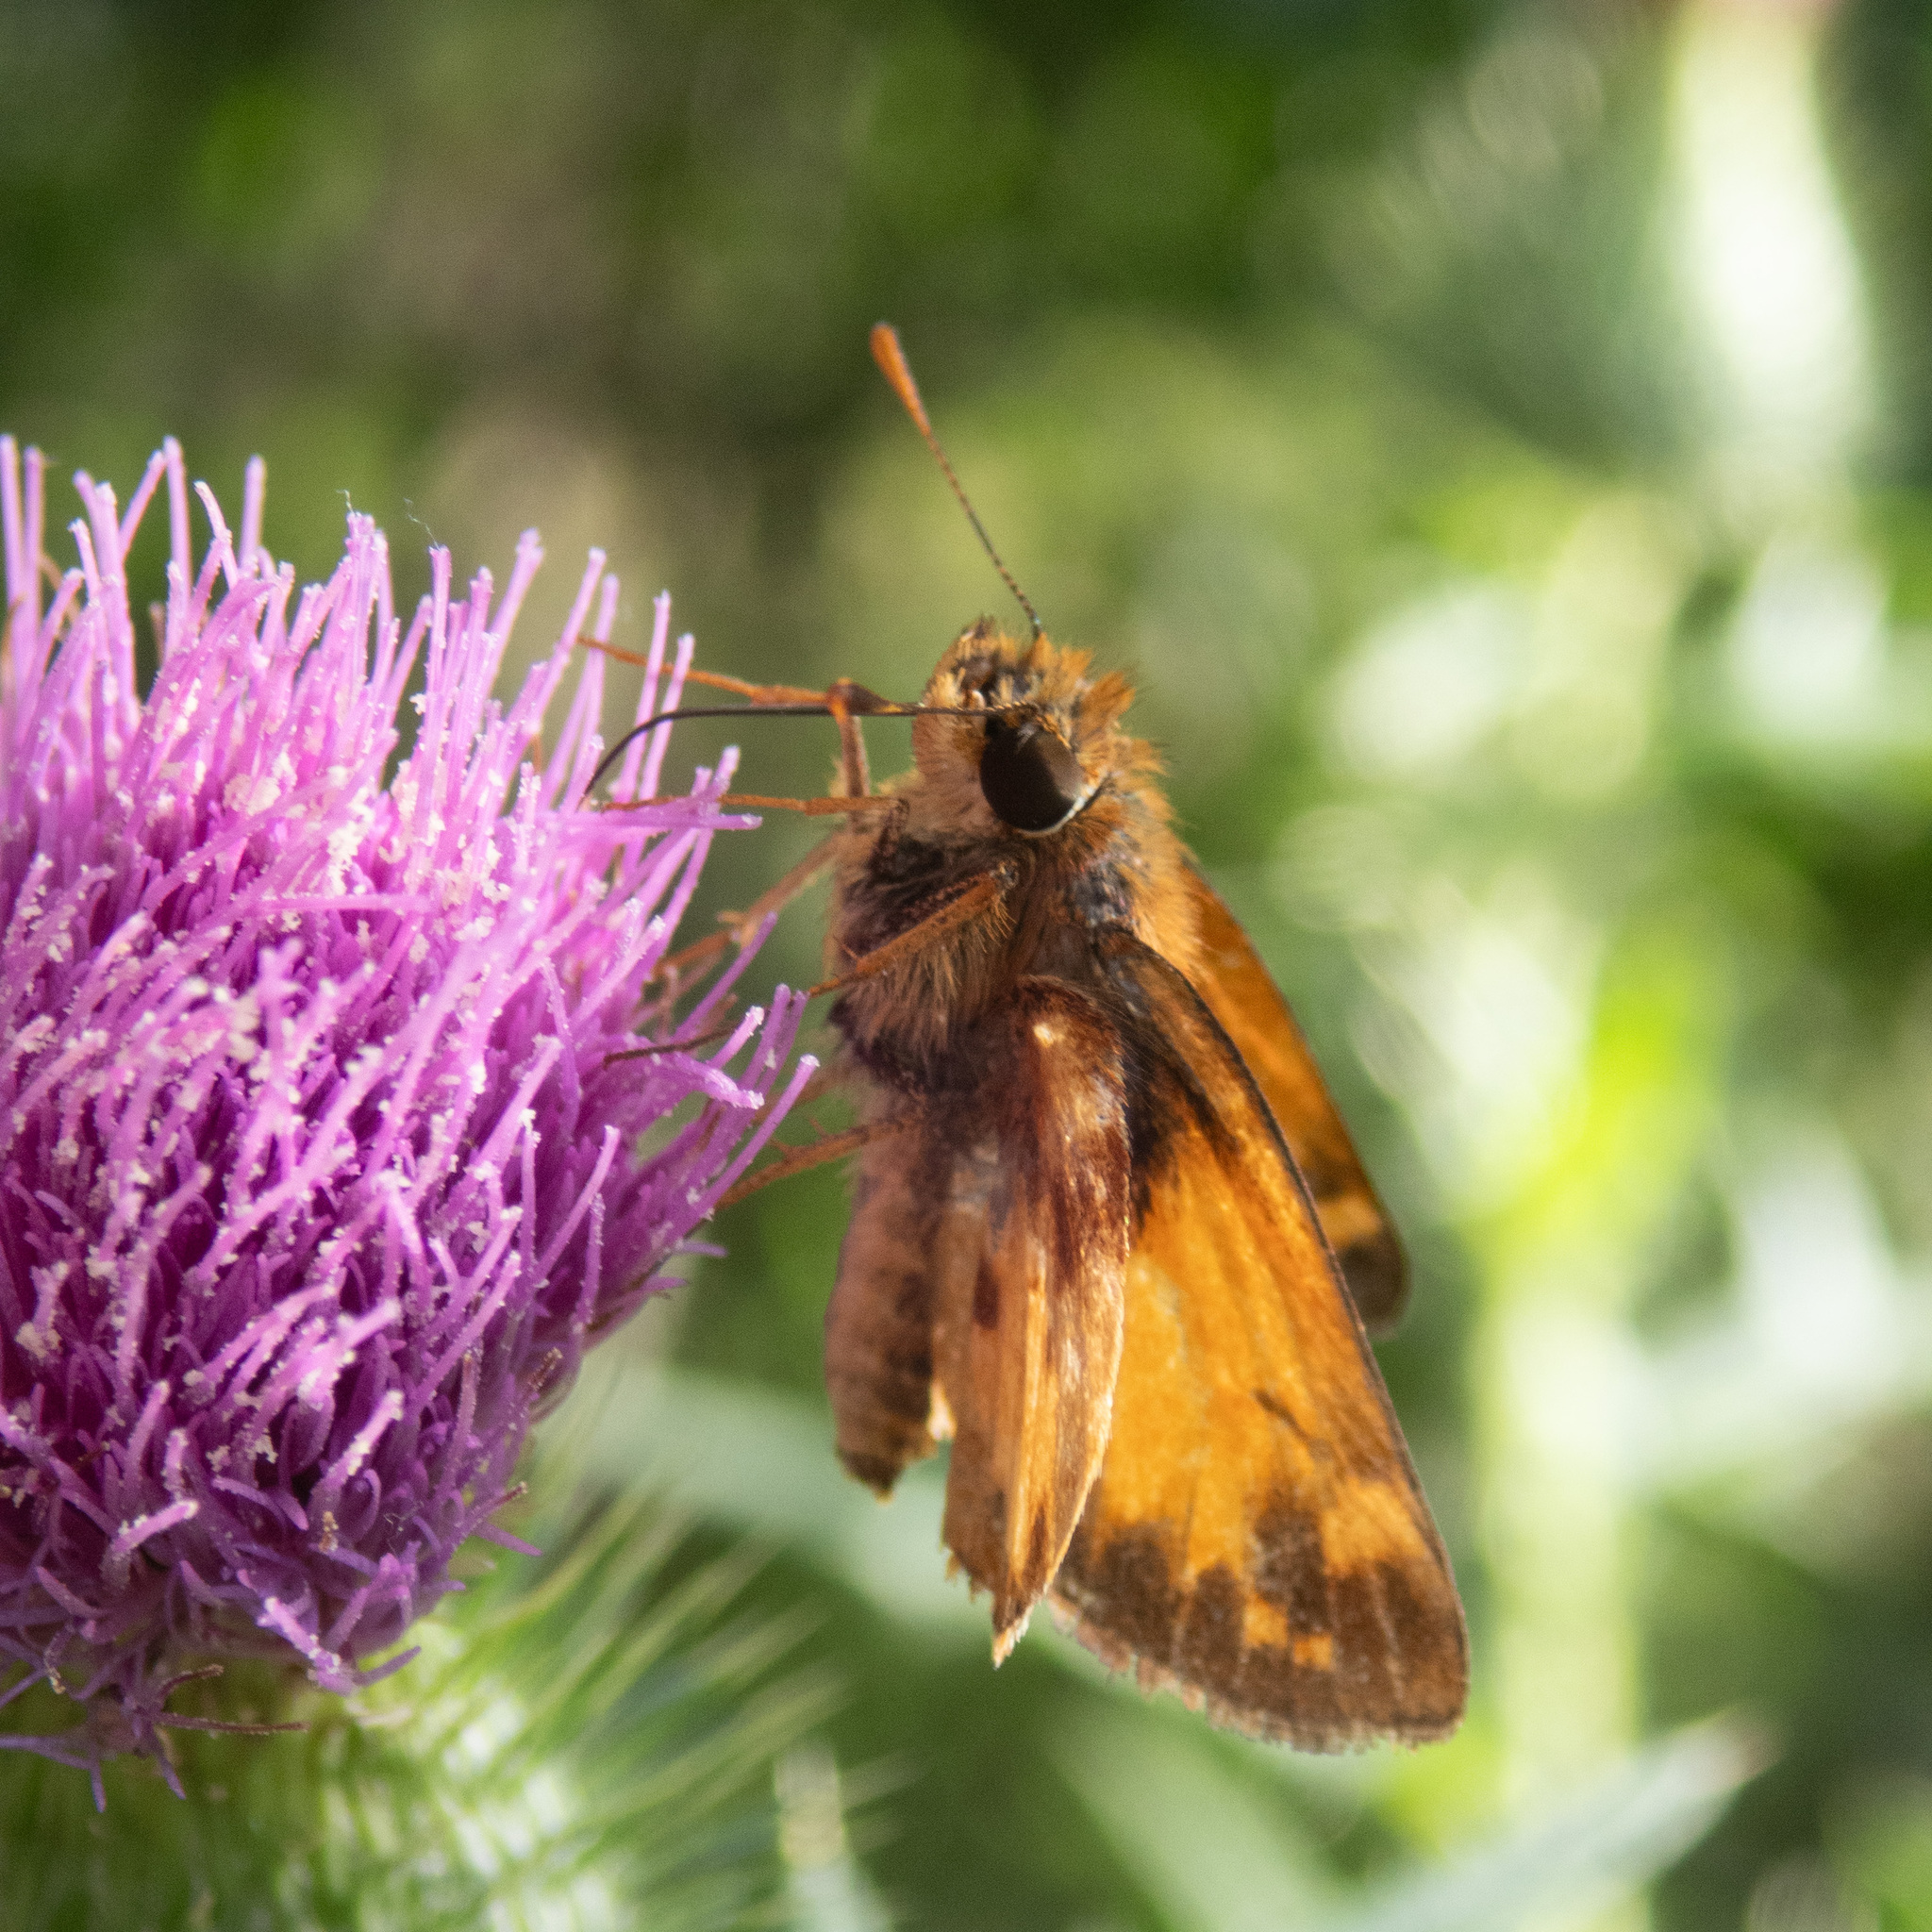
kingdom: Animalia
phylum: Arthropoda
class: Insecta
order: Lepidoptera
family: Hesperiidae
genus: Lon
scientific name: Lon zabulon
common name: Zabulon skipper
